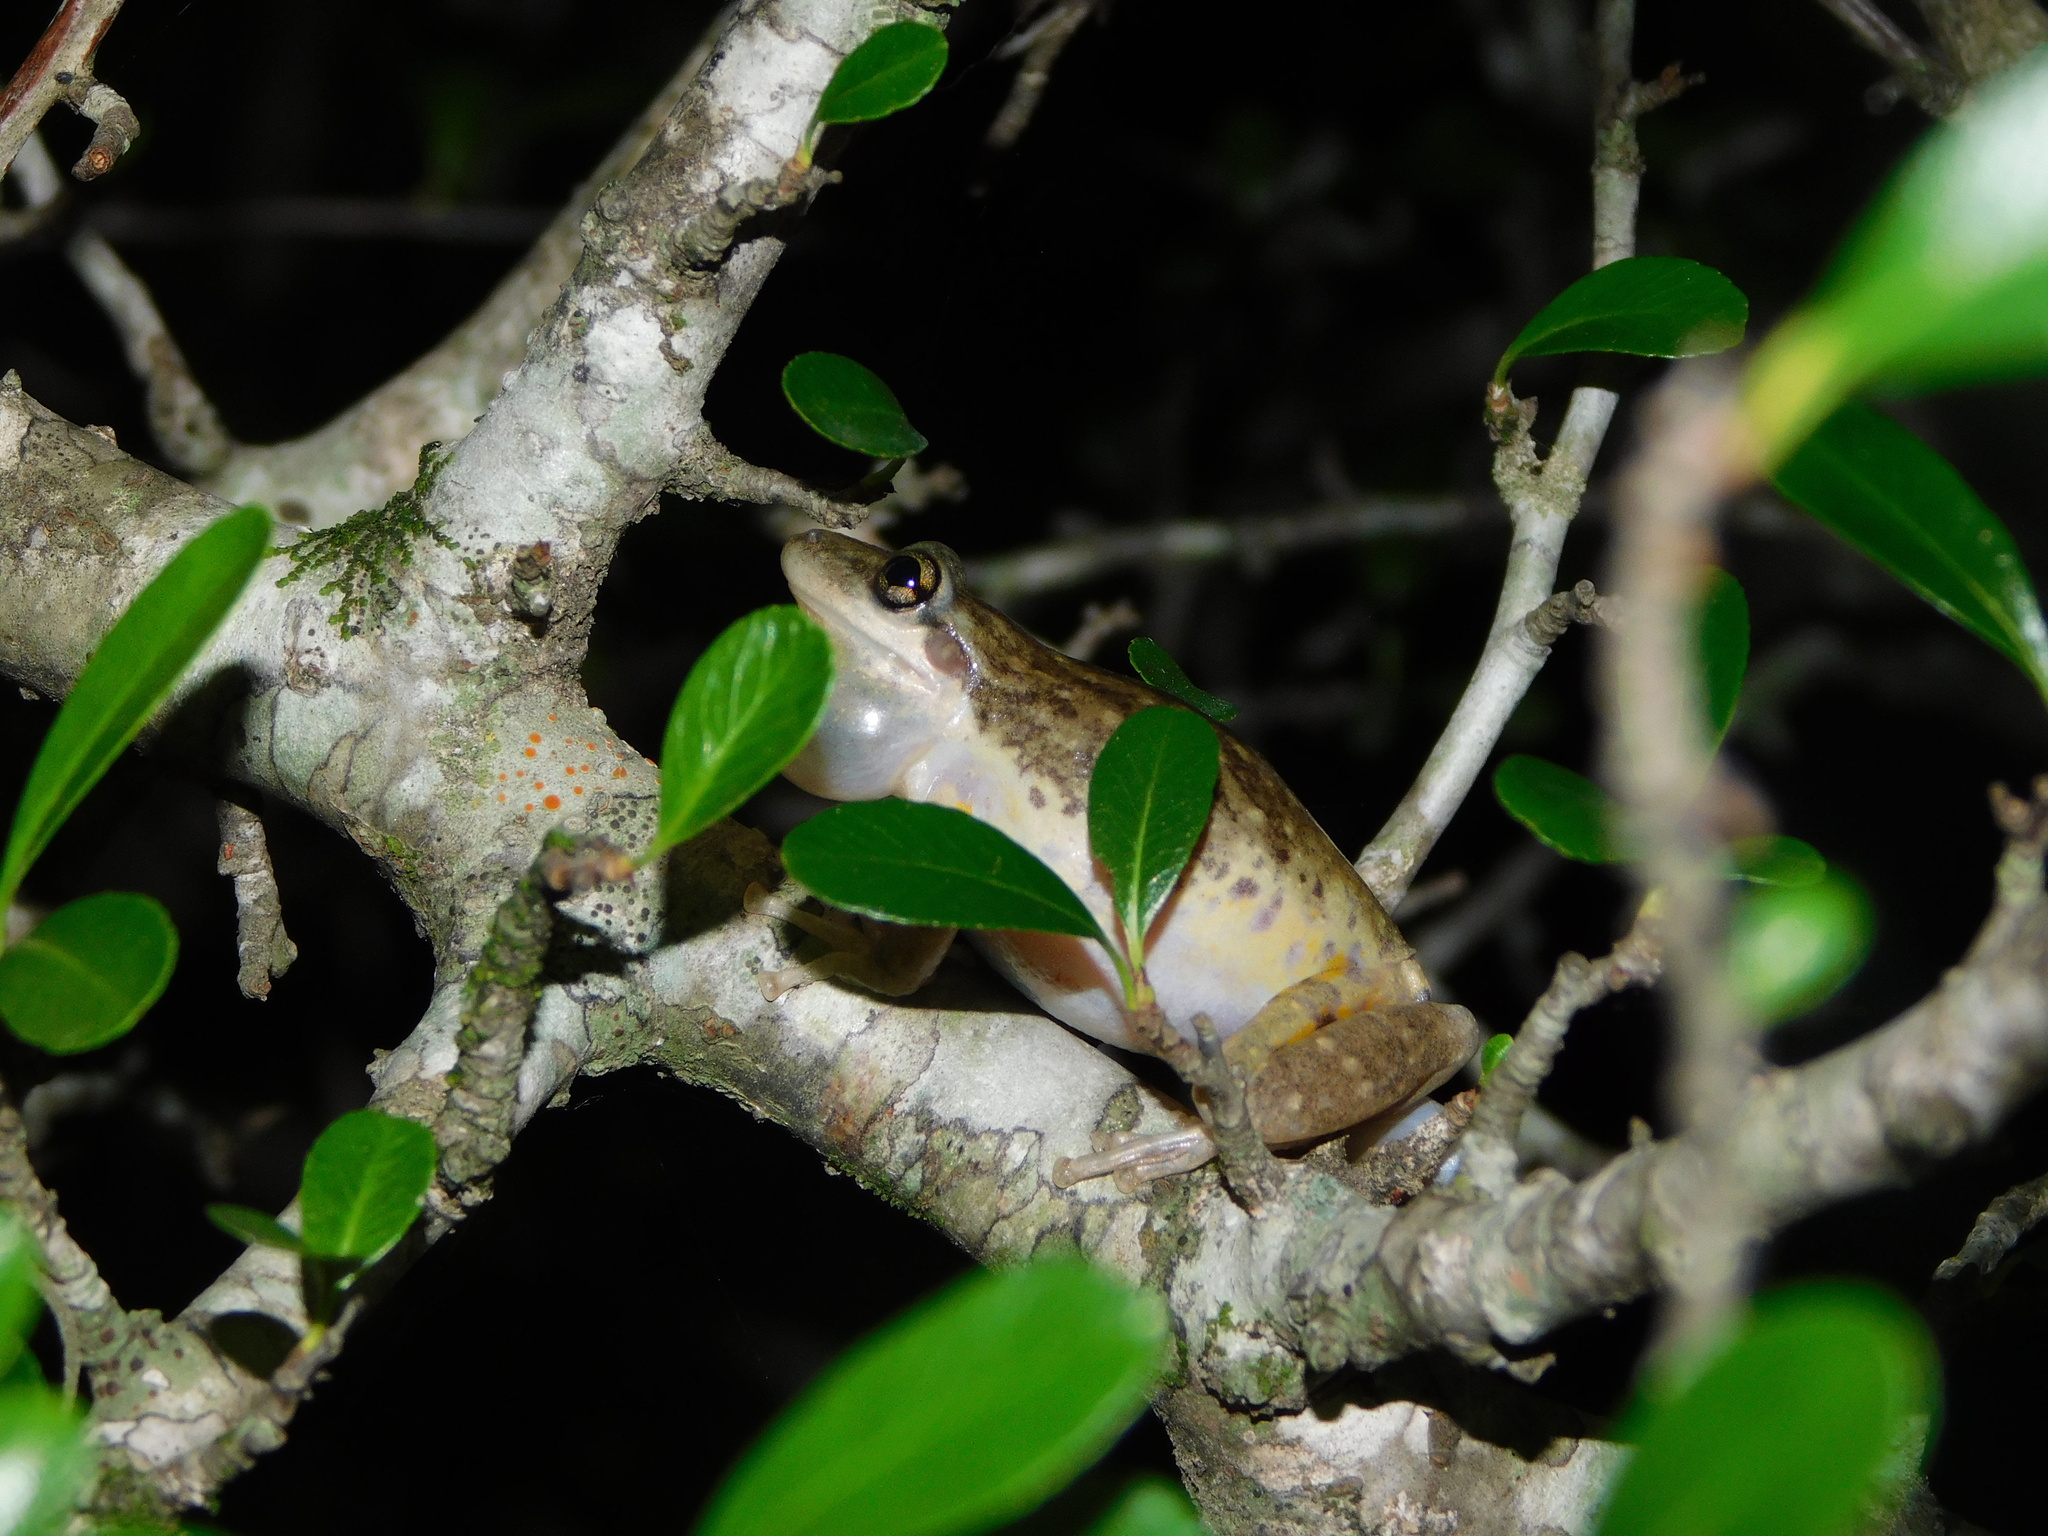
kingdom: Animalia
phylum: Chordata
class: Amphibia
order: Anura
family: Hylidae
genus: Scinax
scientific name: Scinax nasicus
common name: Lesser snouted treefrog
